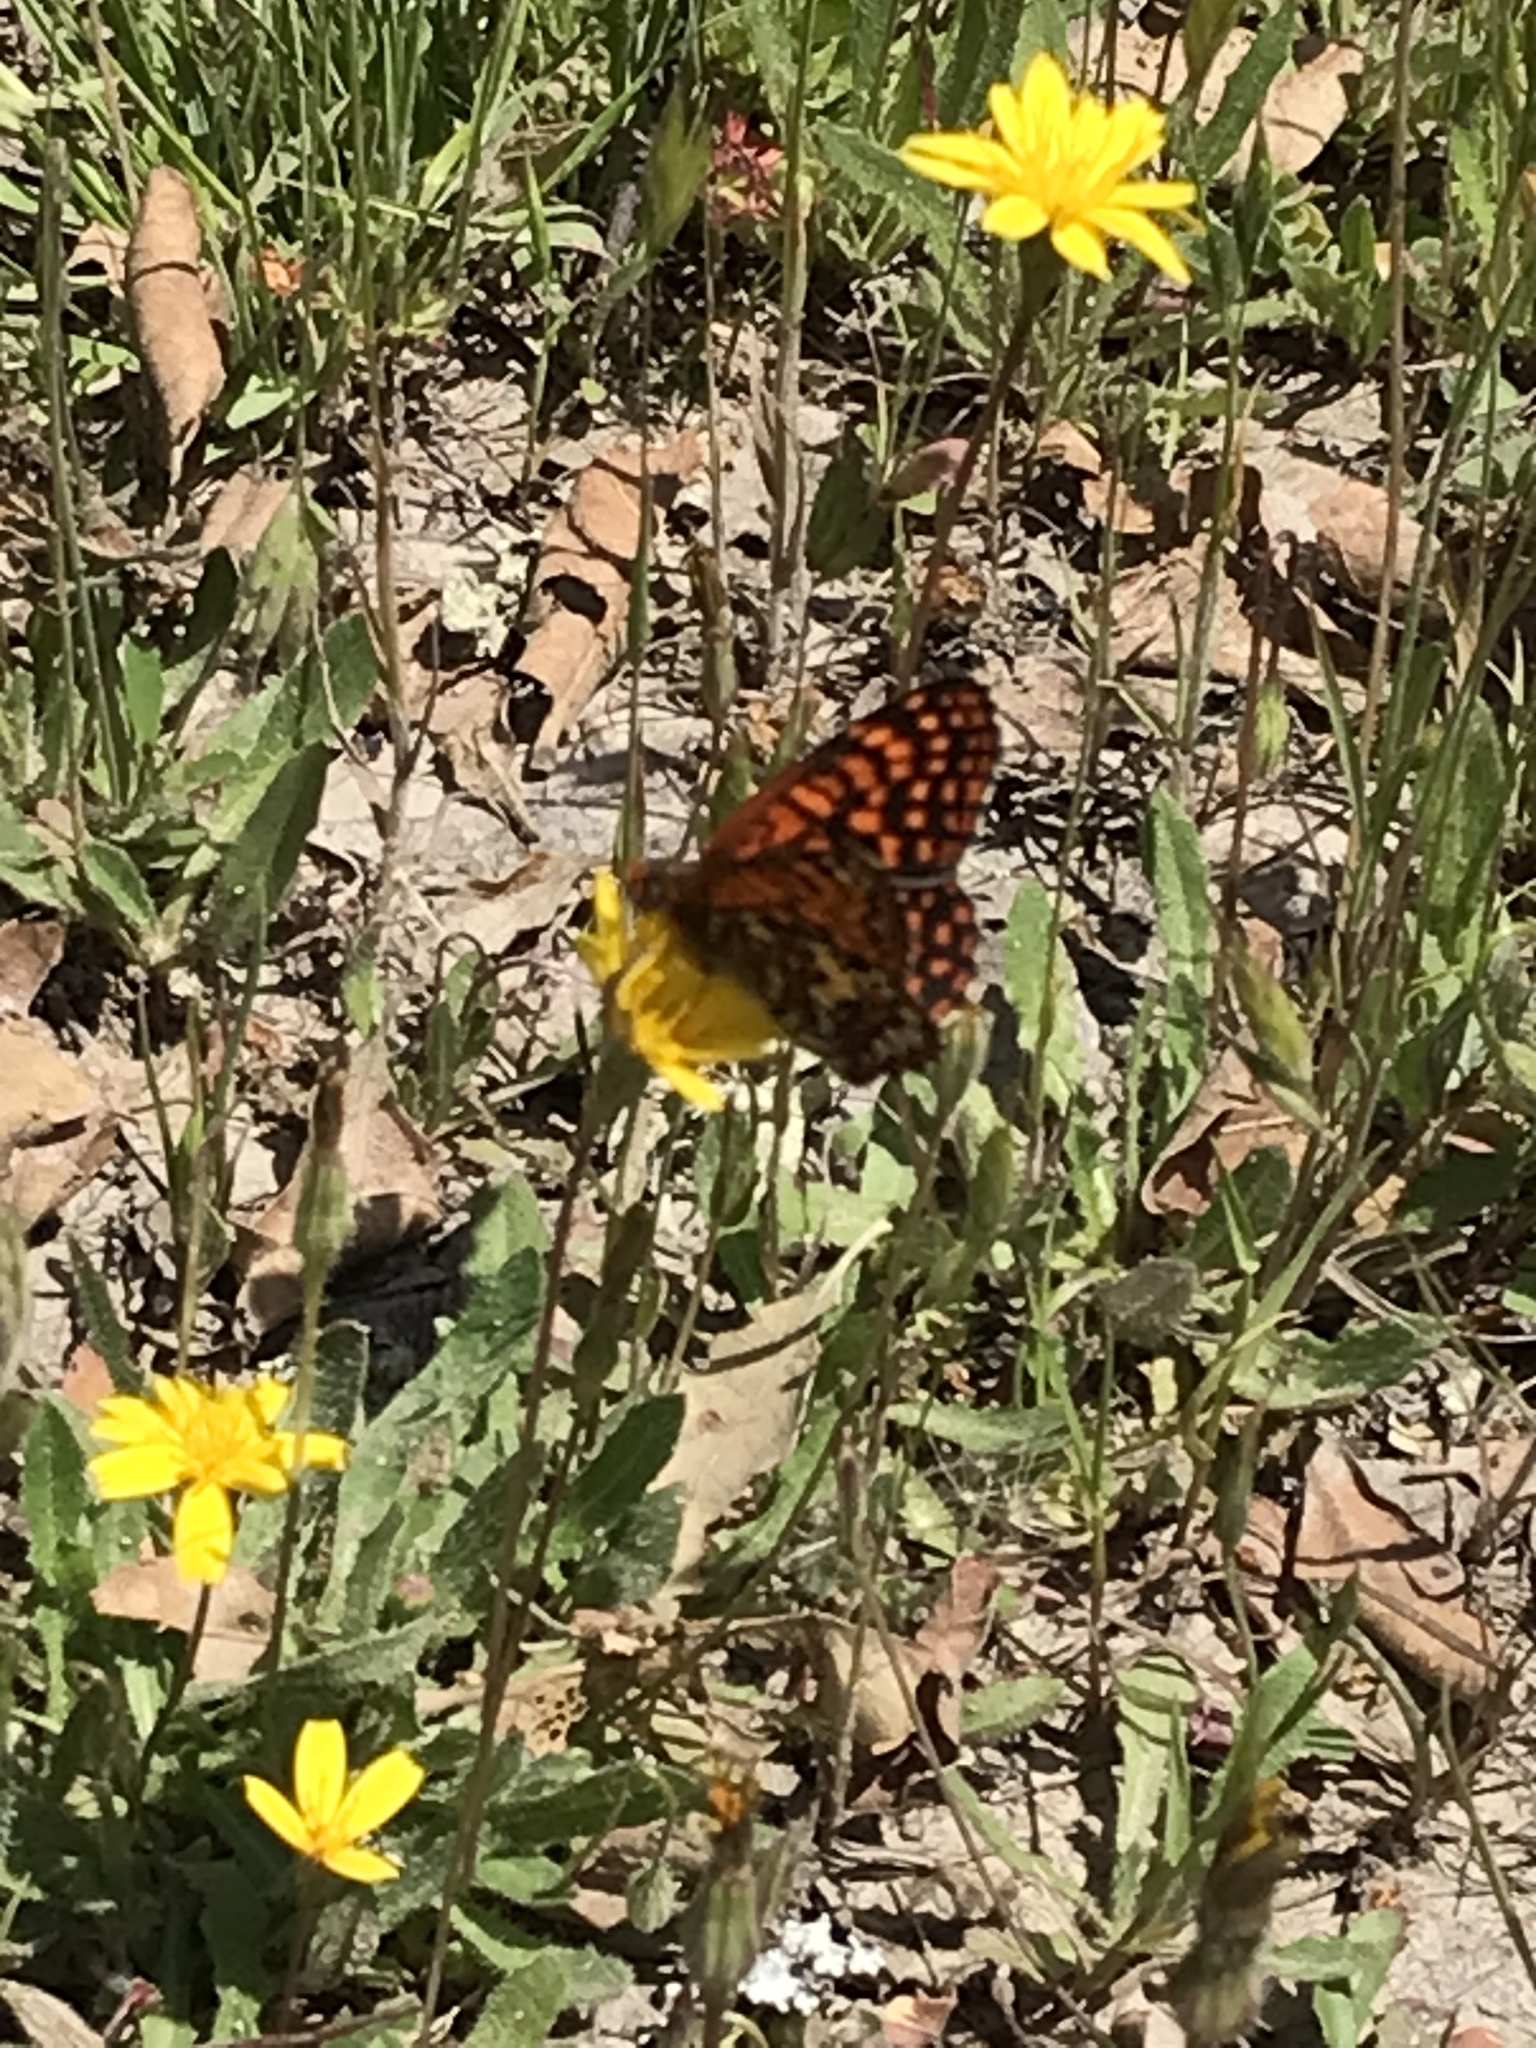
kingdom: Animalia
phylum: Arthropoda
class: Insecta
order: Lepidoptera
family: Nymphalidae
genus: Chlosyne
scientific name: Chlosyne palla
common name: Northern checkerspot
